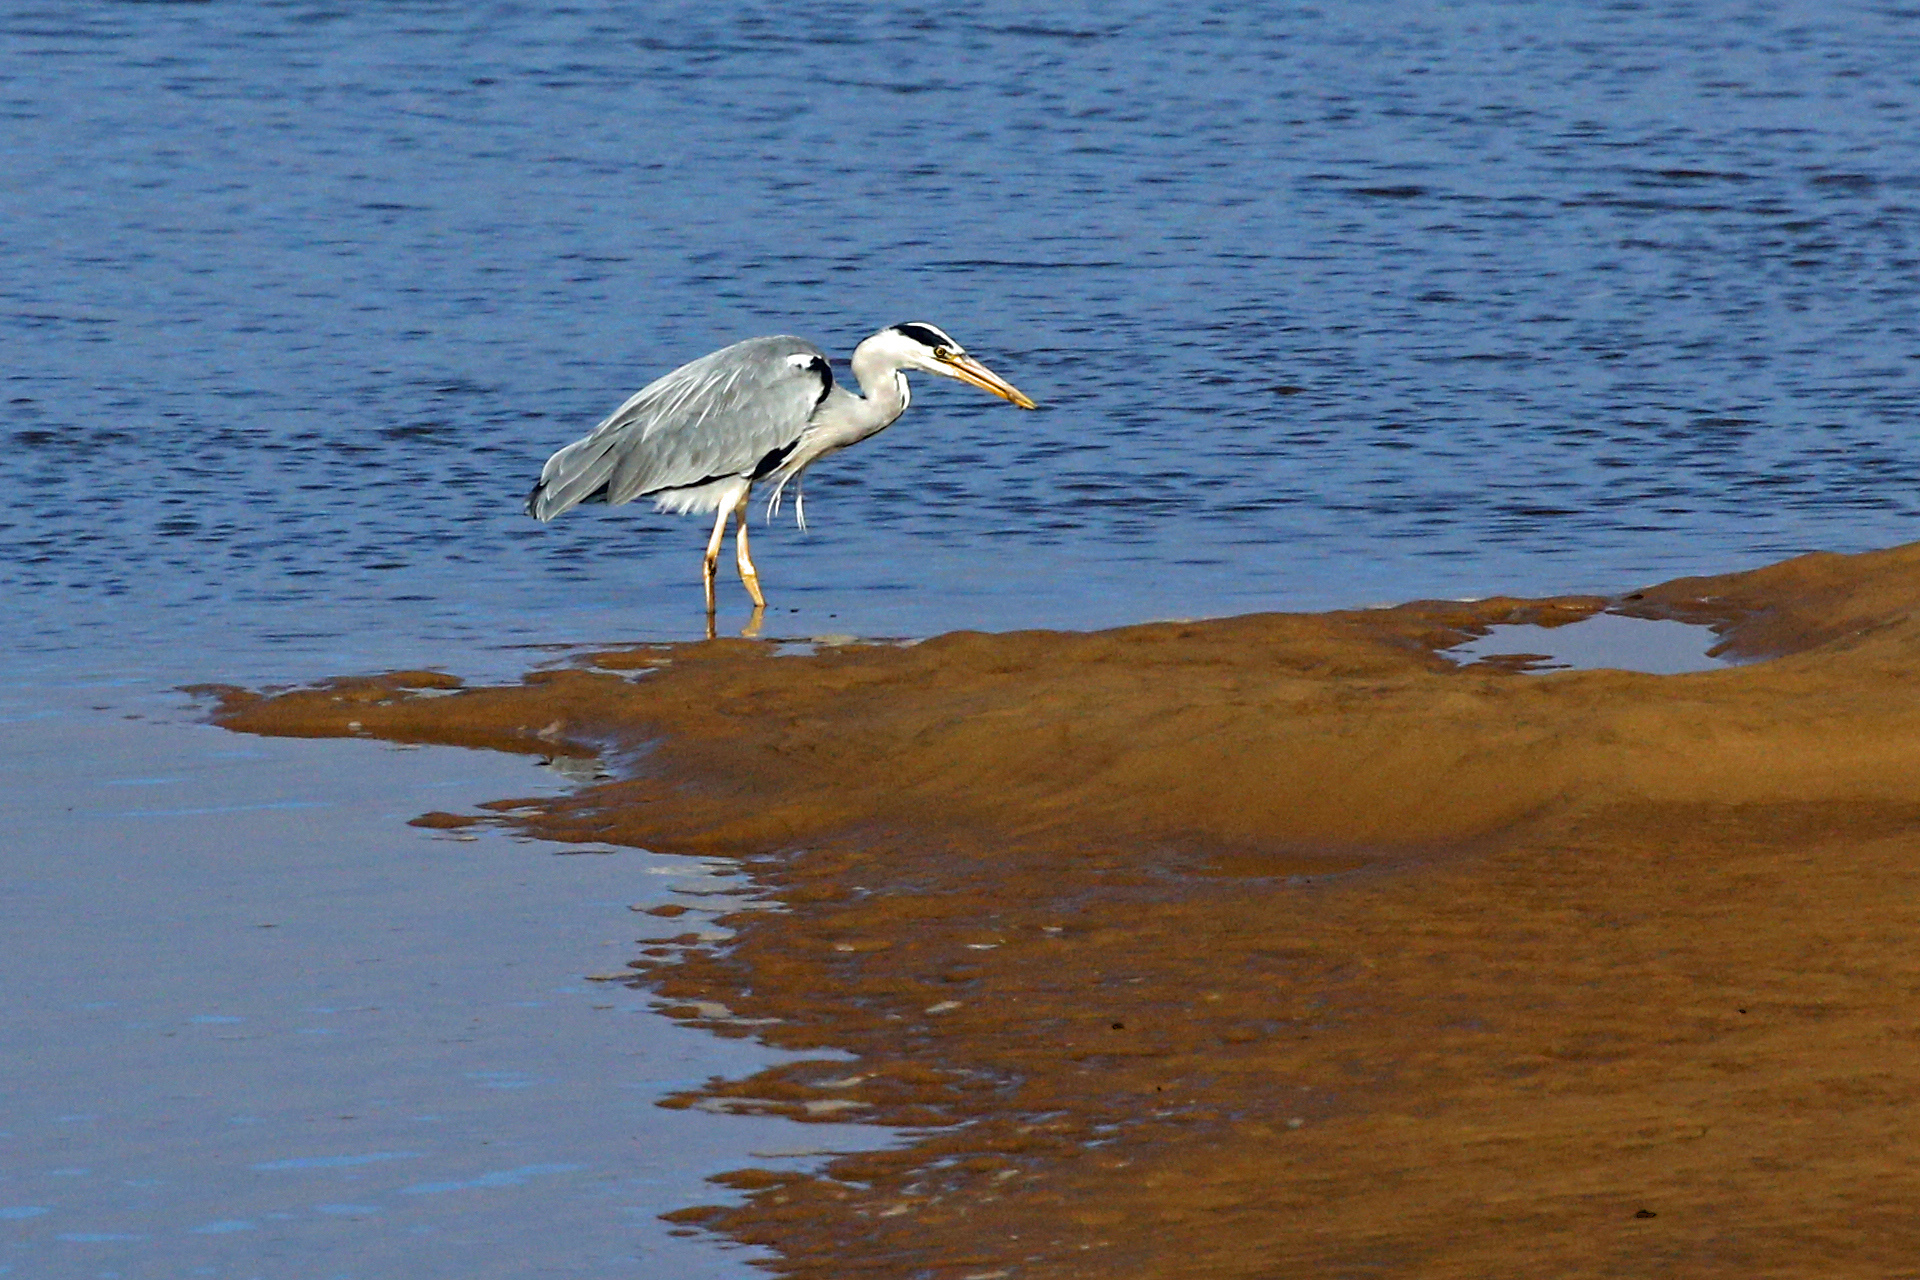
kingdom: Animalia
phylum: Chordata
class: Aves
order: Pelecaniformes
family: Ardeidae
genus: Ardea
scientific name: Ardea cinerea
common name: Grey heron
